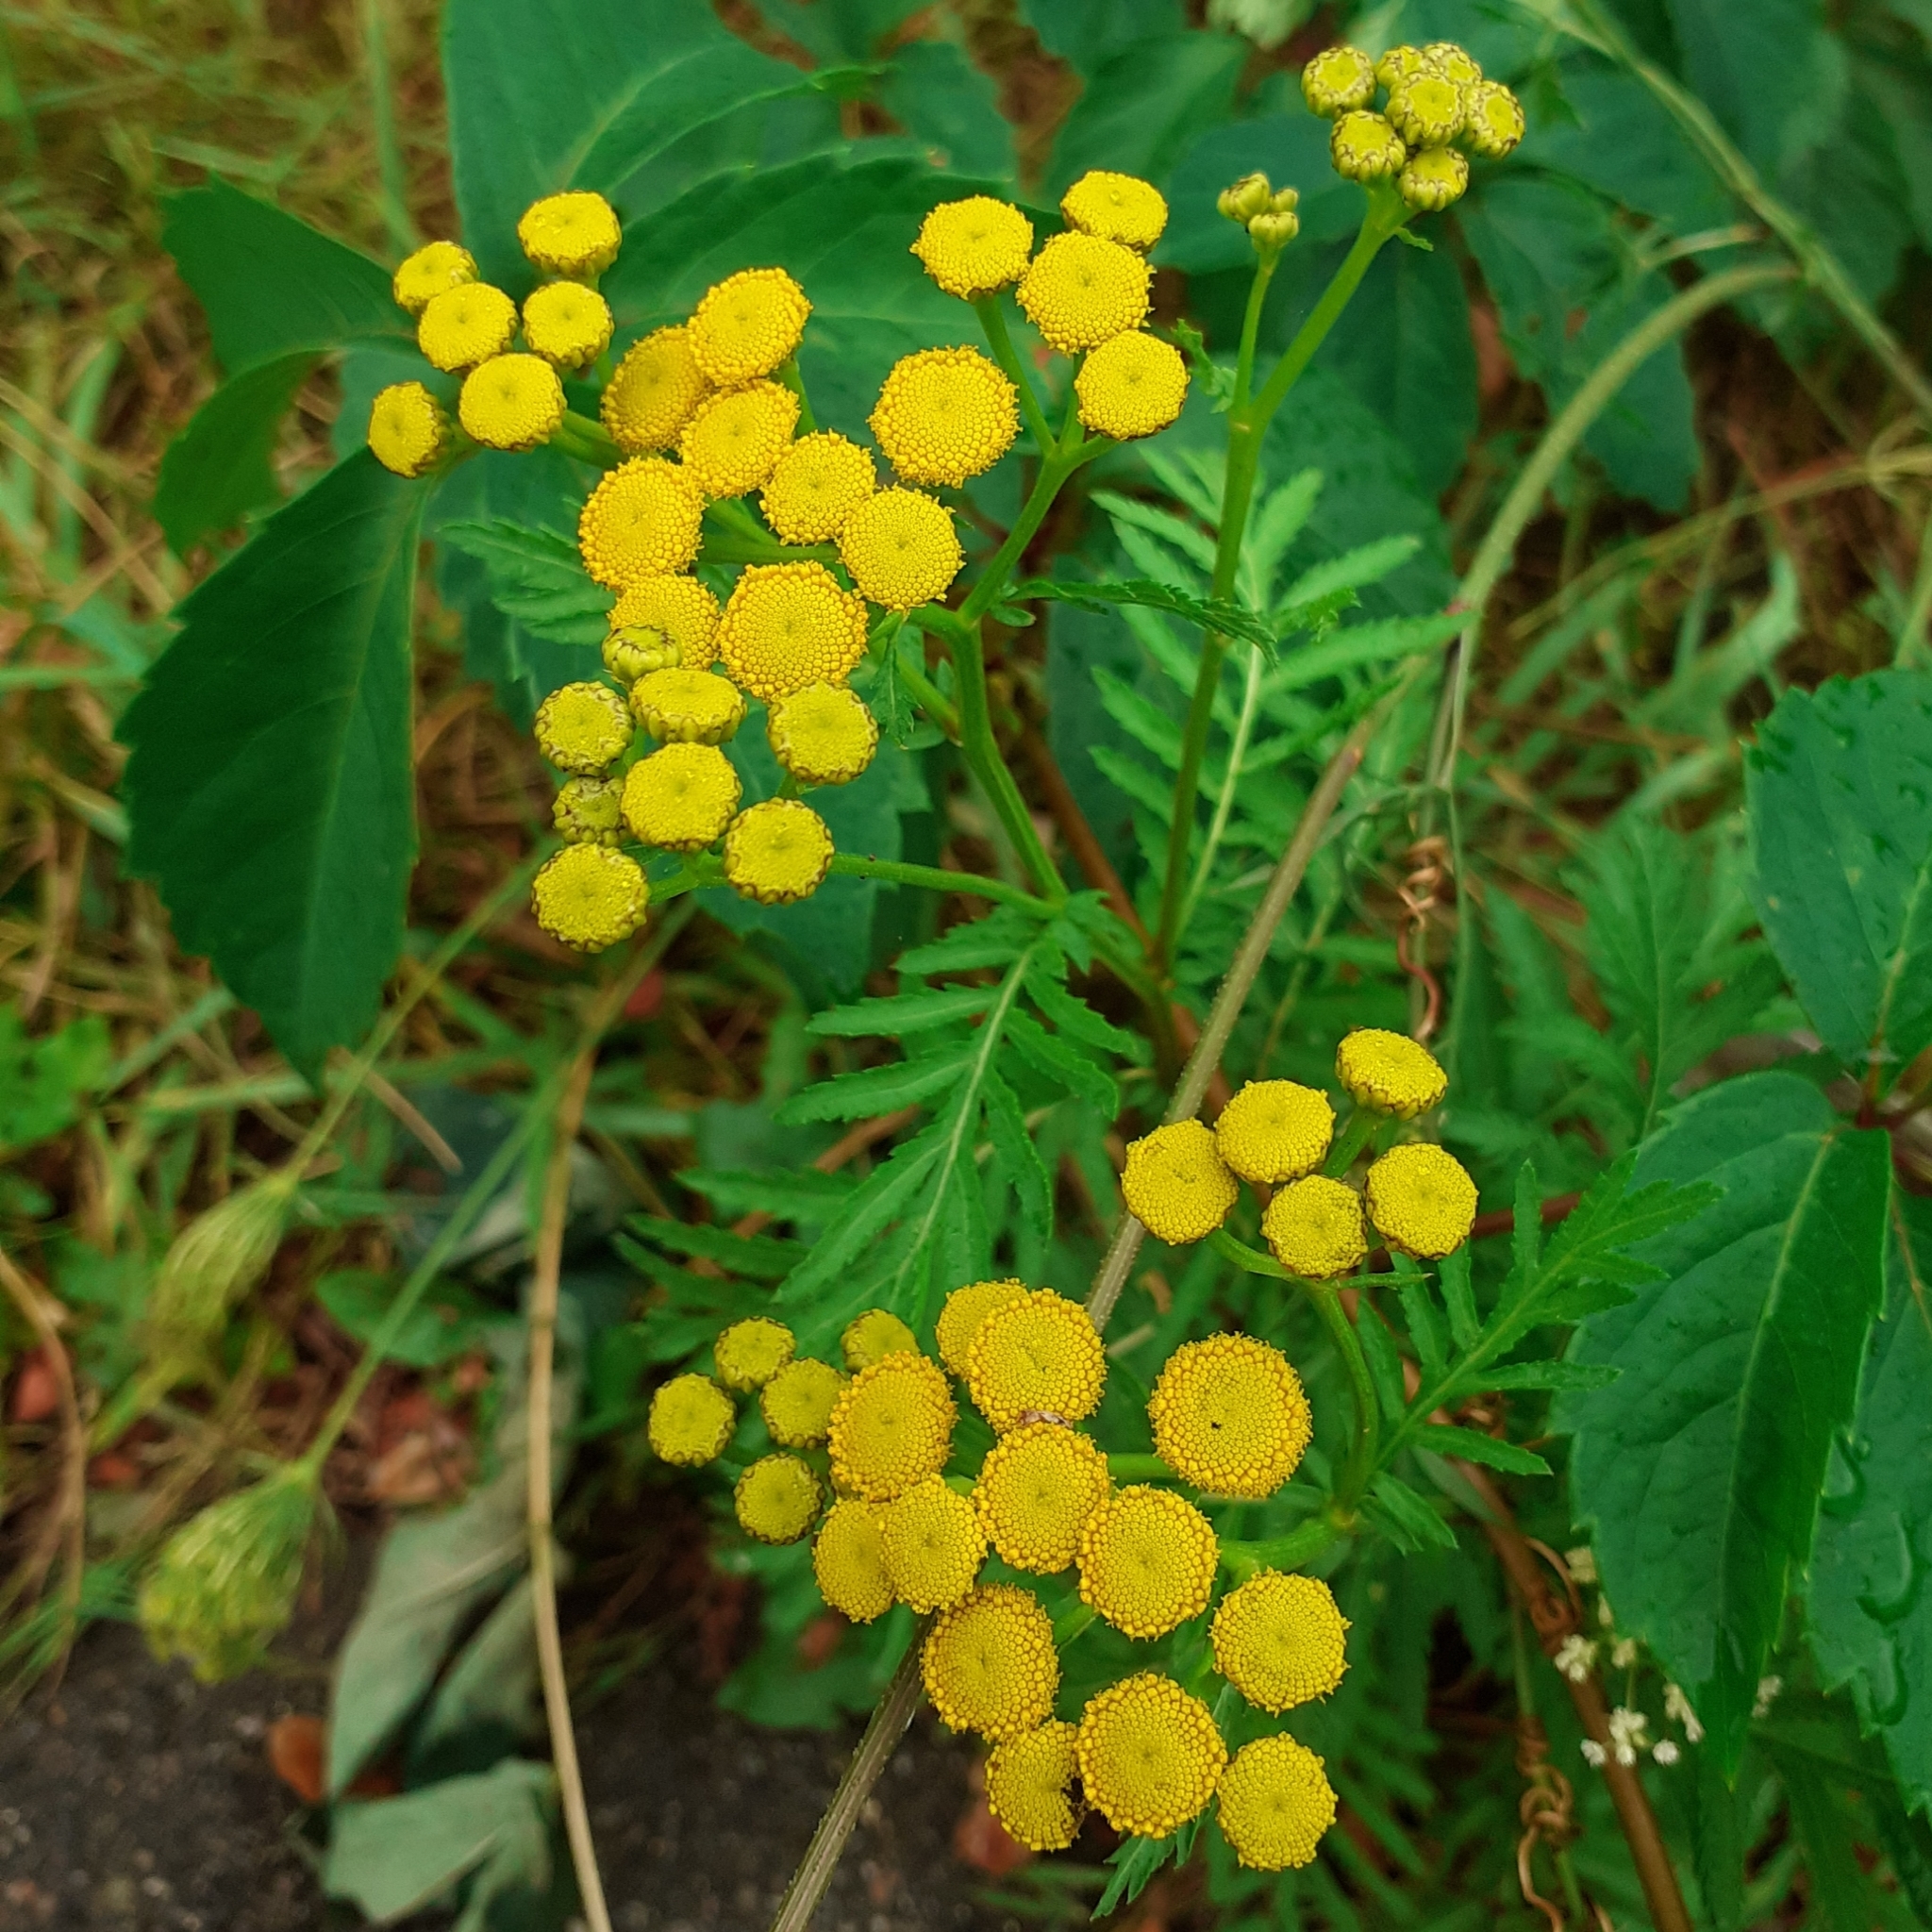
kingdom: Plantae
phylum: Tracheophyta
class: Magnoliopsida
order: Asterales
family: Asteraceae
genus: Tanacetum
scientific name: Tanacetum vulgare
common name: Common tansy
